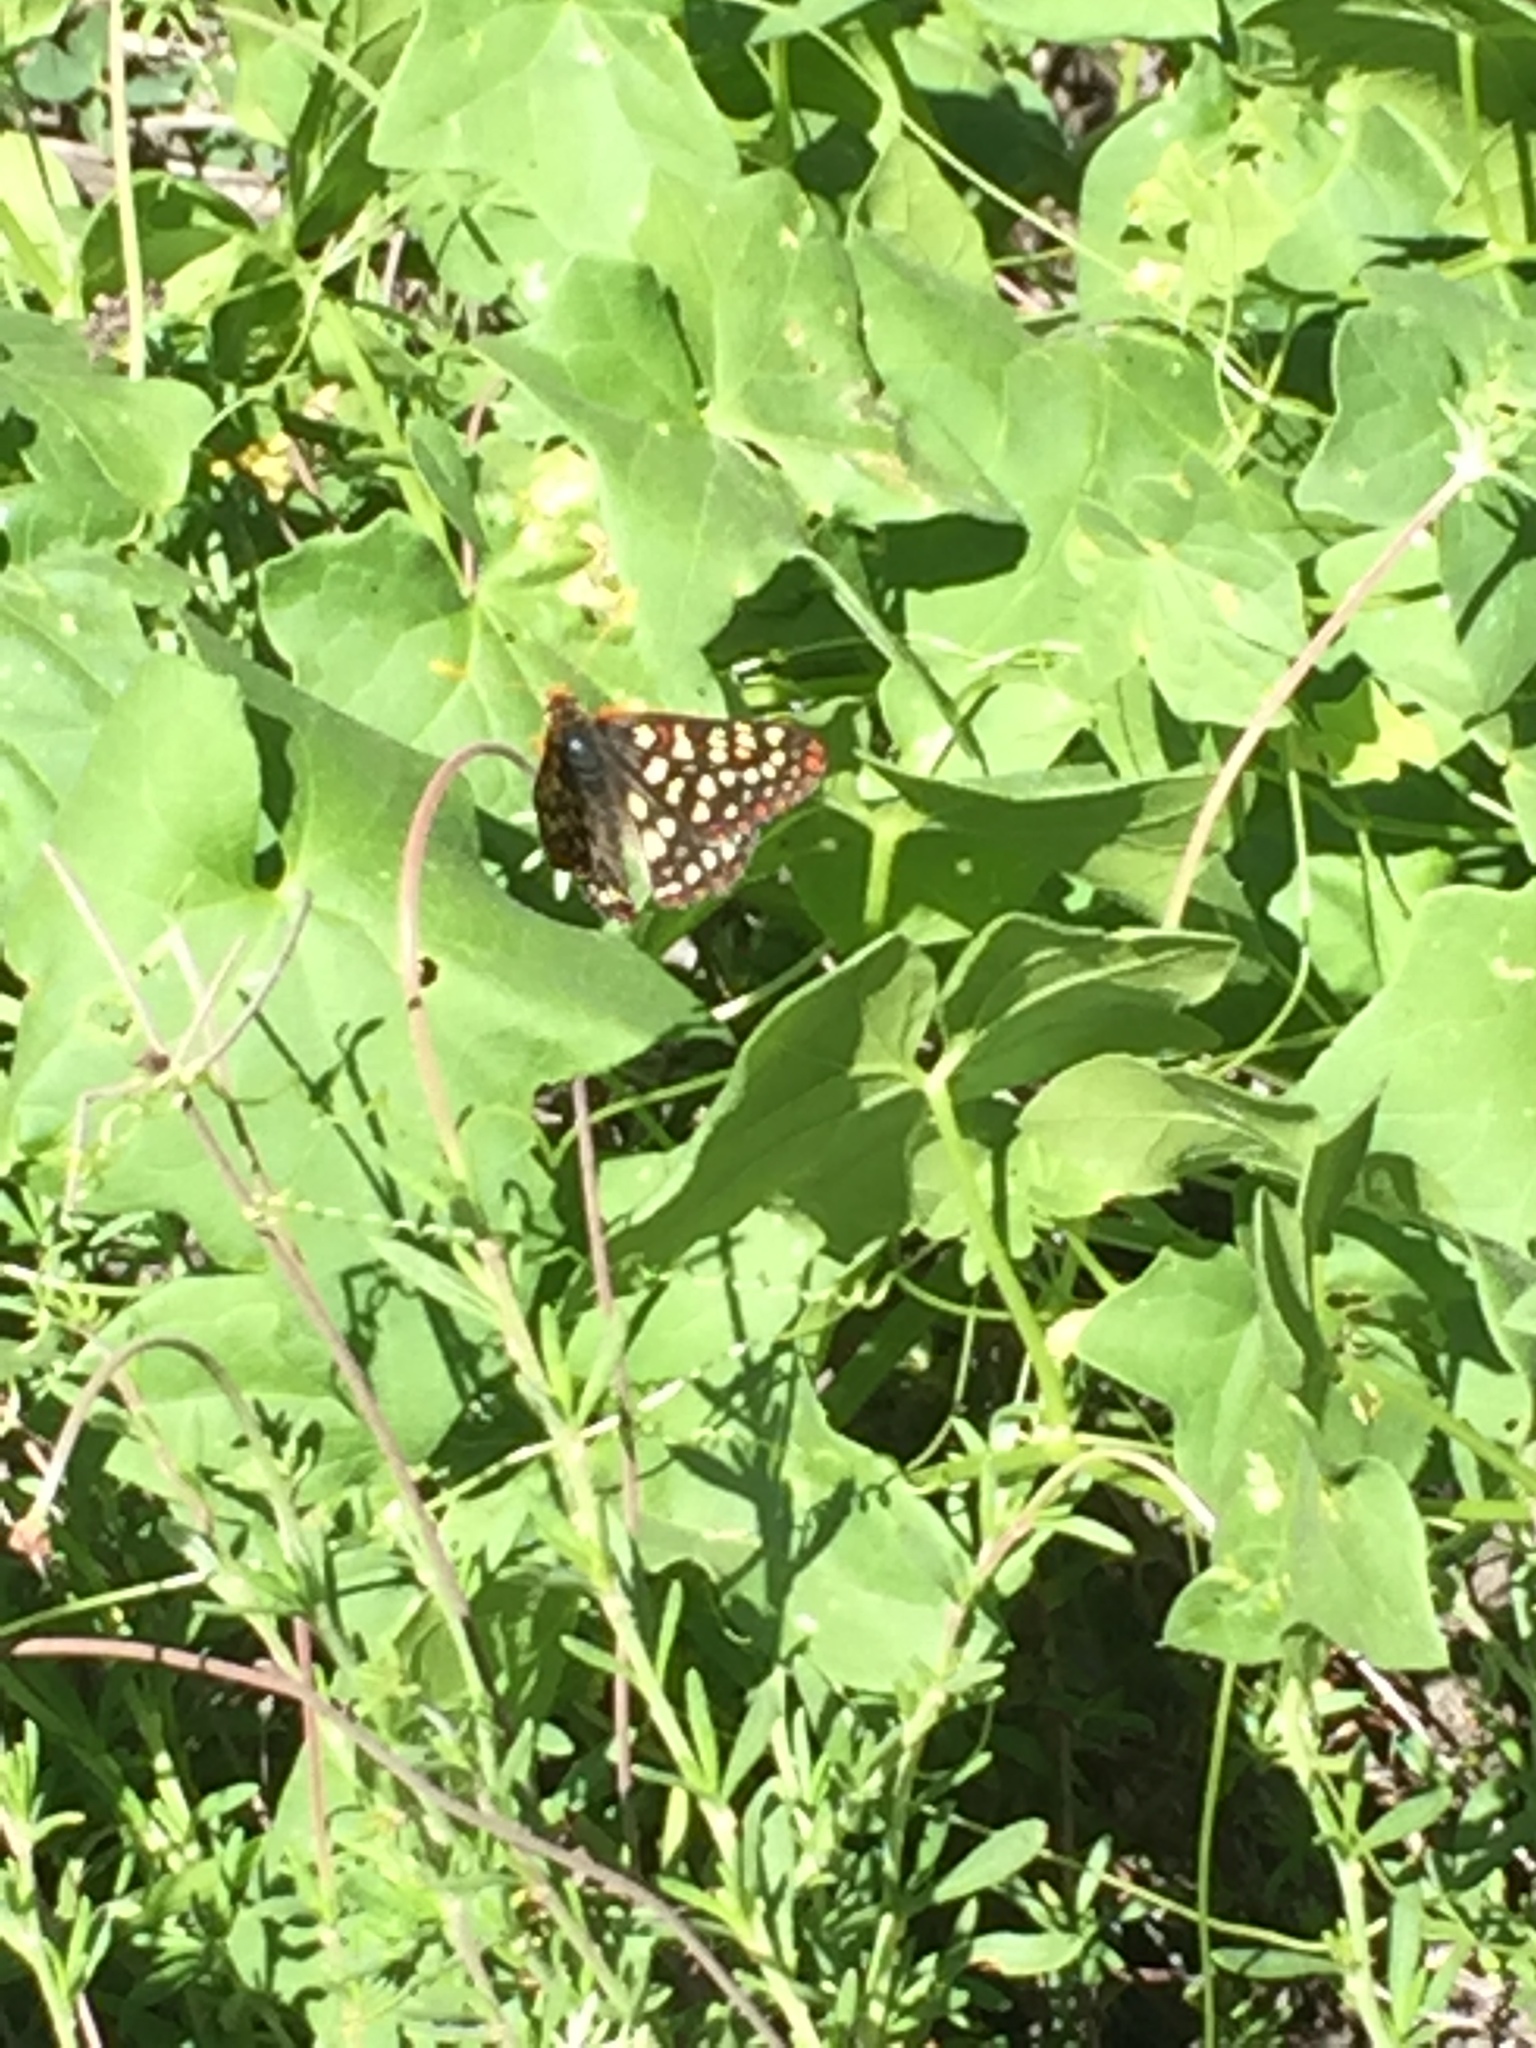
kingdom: Animalia
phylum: Arthropoda
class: Insecta
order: Lepidoptera
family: Nymphalidae
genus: Occidryas
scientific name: Occidryas chalcedona
